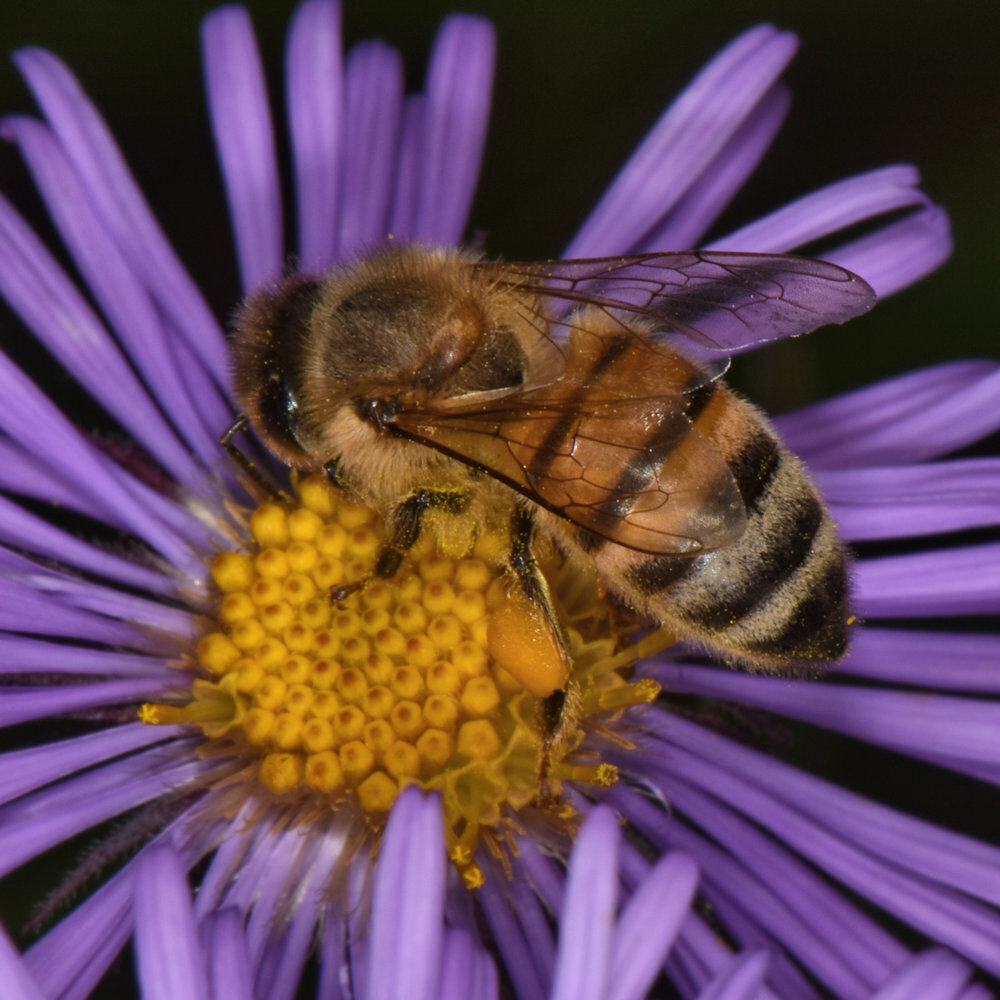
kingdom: Animalia
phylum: Arthropoda
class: Insecta
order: Hymenoptera
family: Apidae
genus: Apis
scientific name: Apis mellifera
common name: Honey bee
